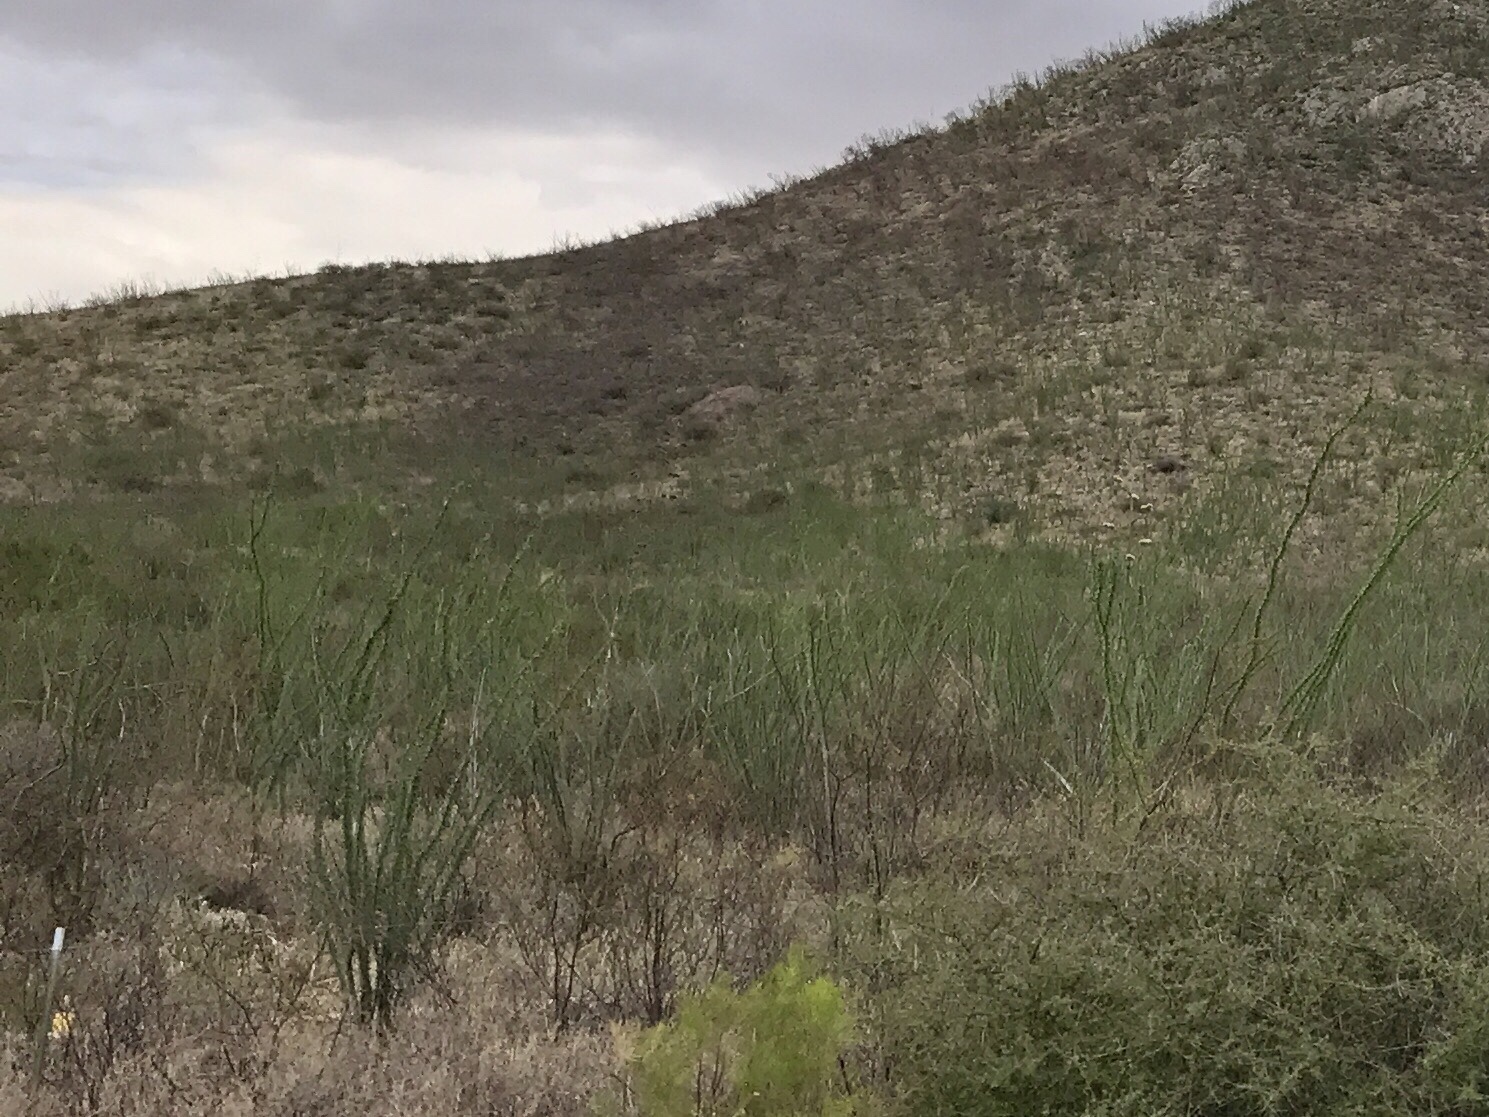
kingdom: Plantae
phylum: Tracheophyta
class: Magnoliopsida
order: Ericales
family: Fouquieriaceae
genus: Fouquieria
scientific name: Fouquieria splendens
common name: Vine-cactus
